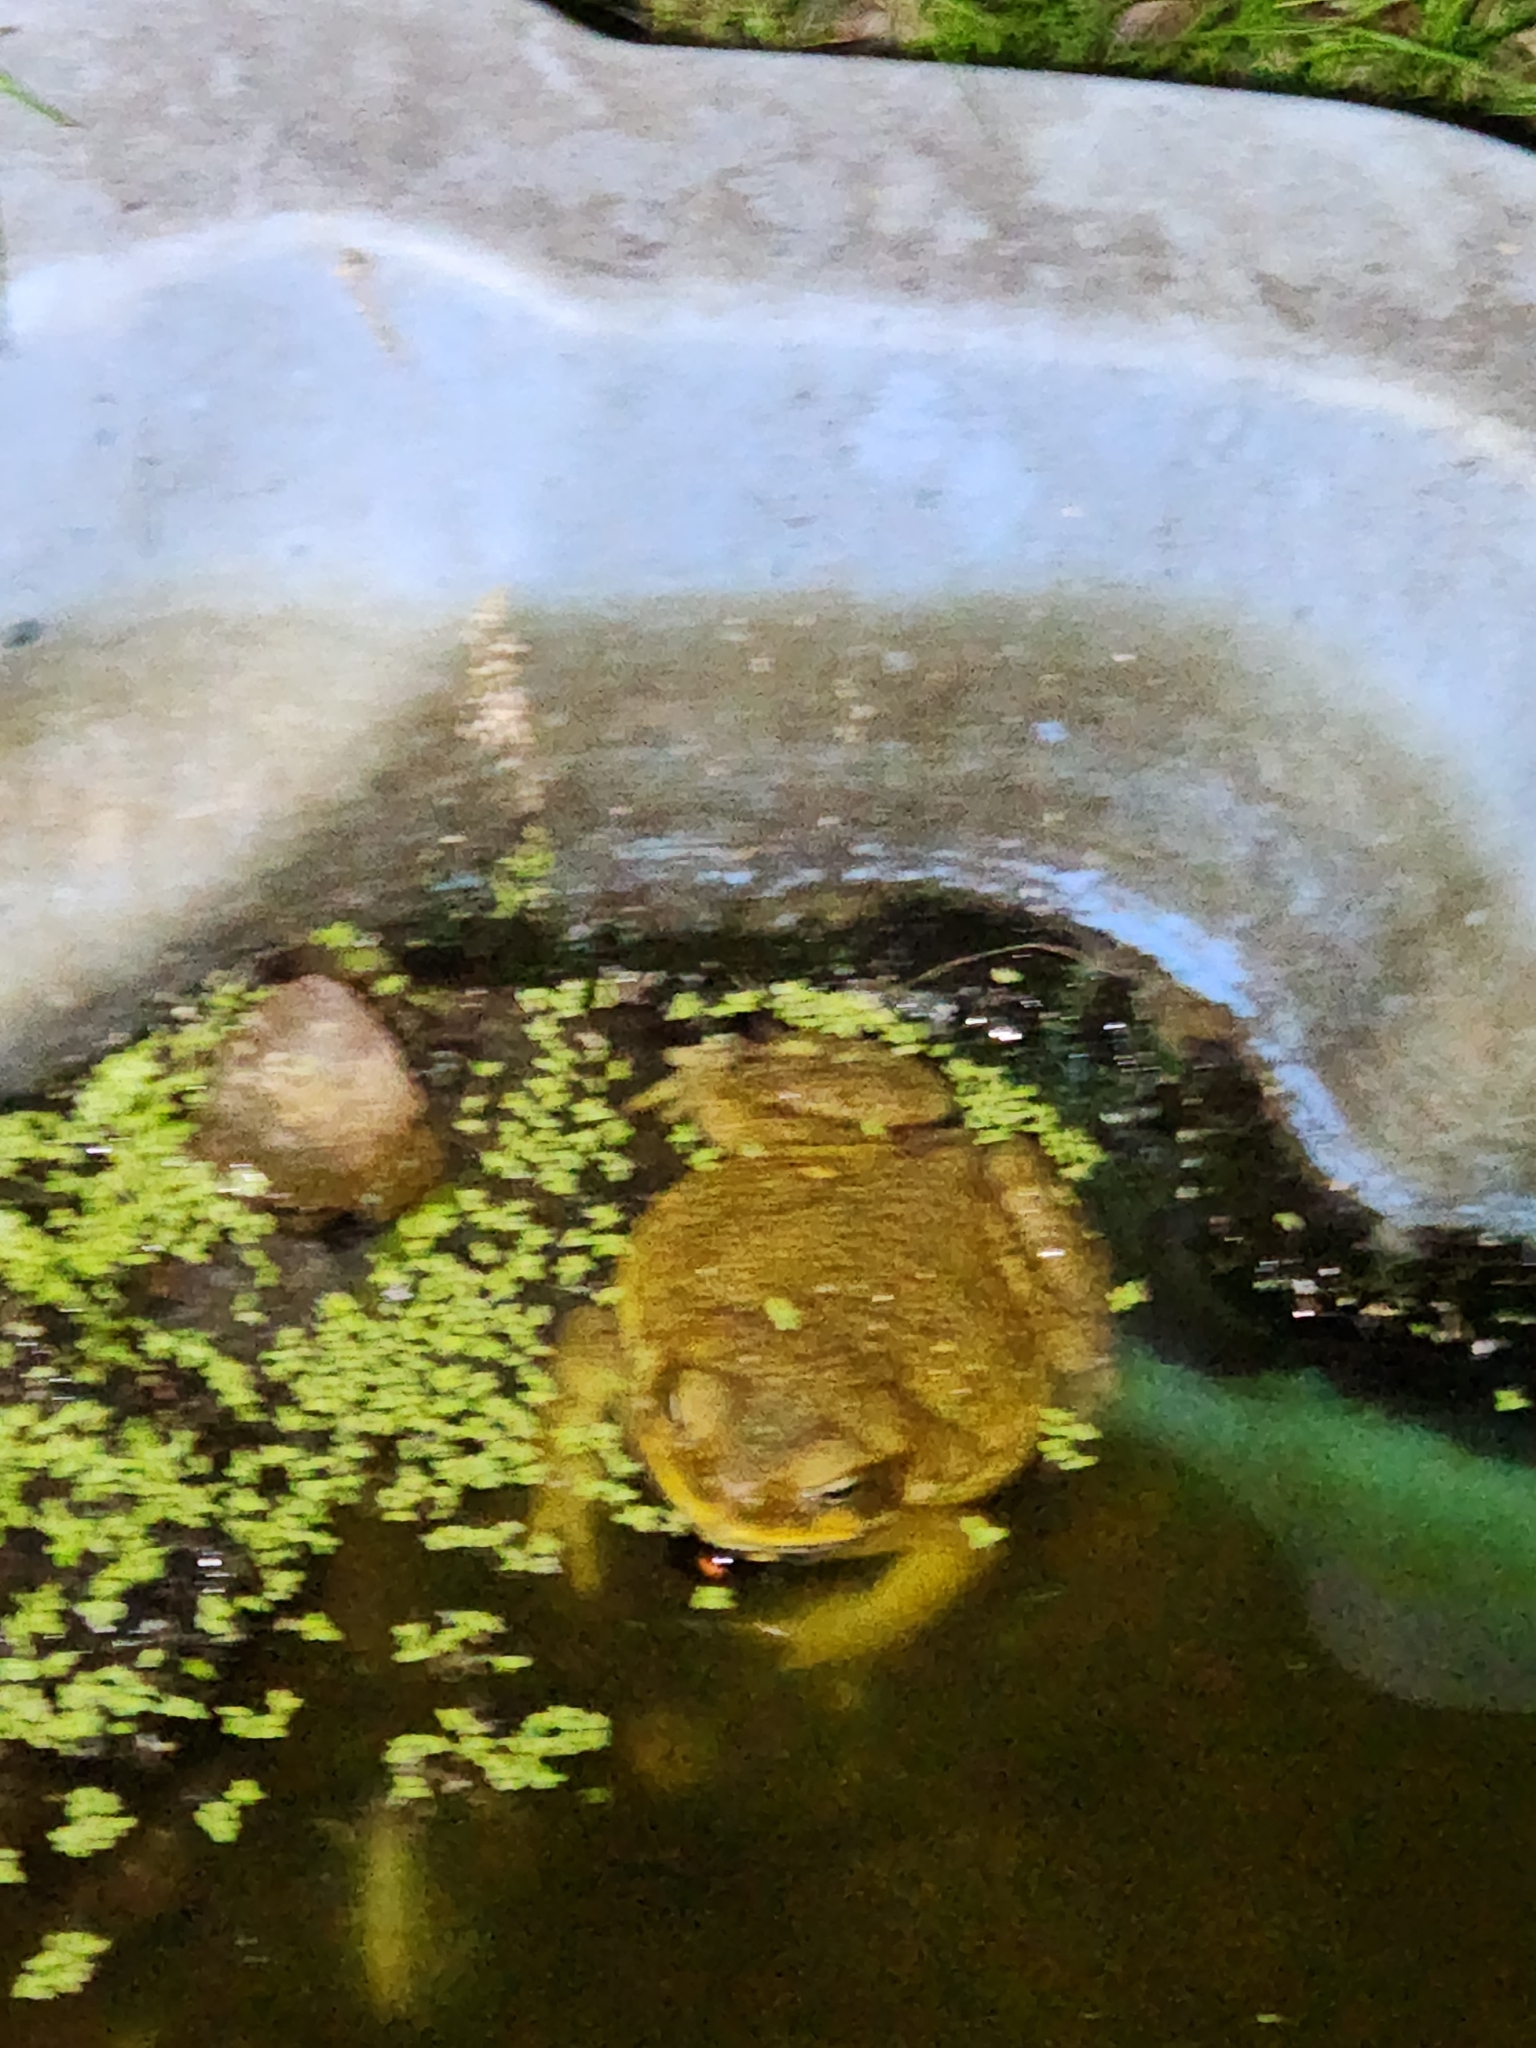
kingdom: Animalia
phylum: Chordata
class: Amphibia
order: Anura
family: Bufonidae
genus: Rhinella
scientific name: Rhinella marina
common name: Cane toad
